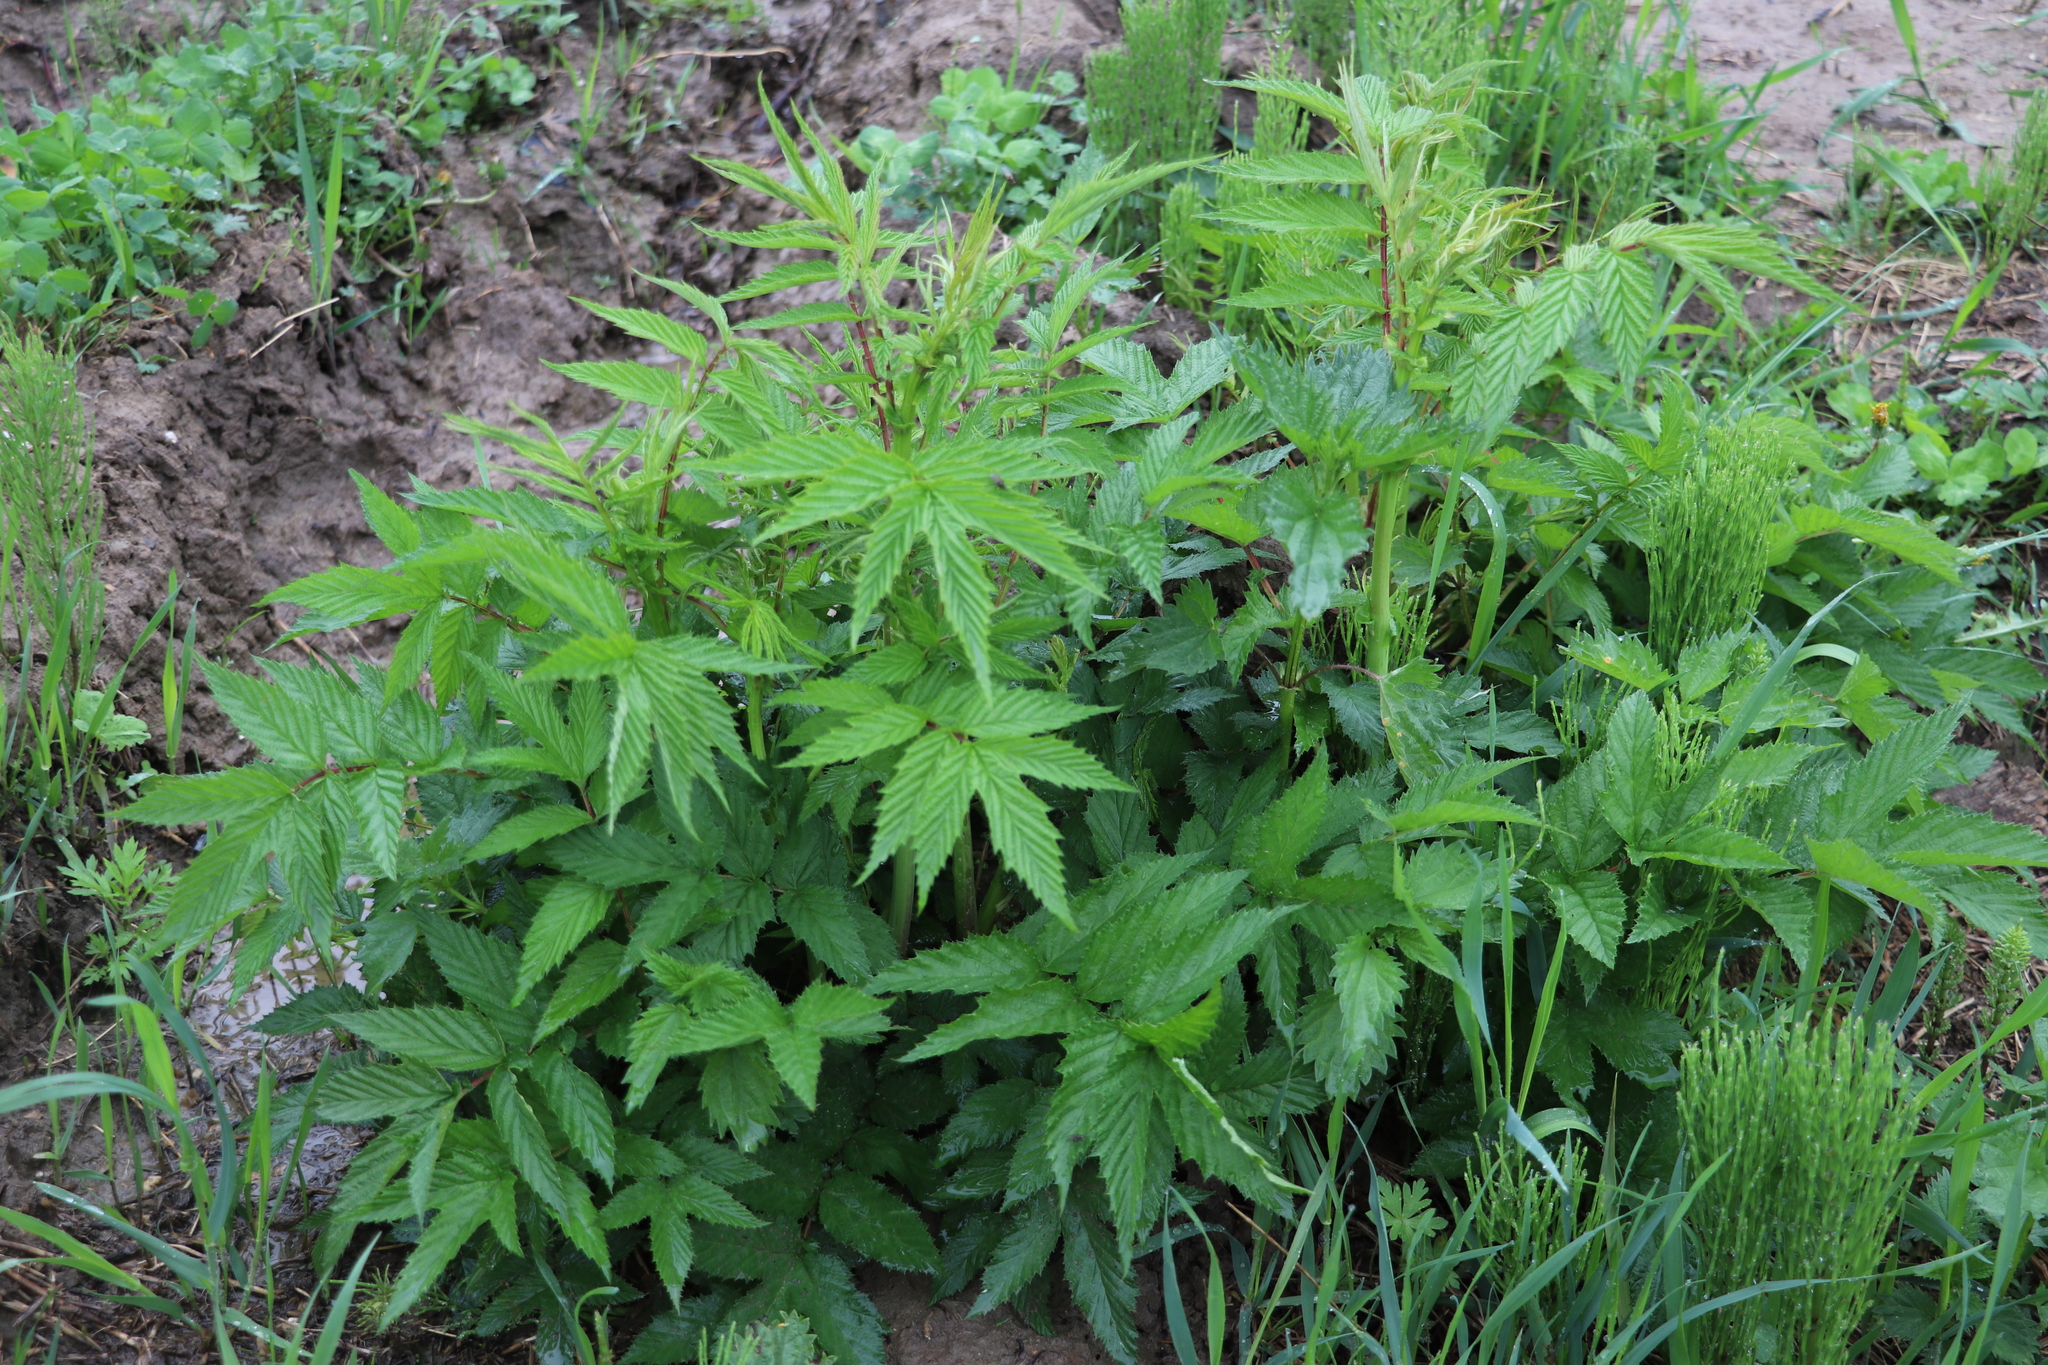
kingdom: Plantae
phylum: Tracheophyta
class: Magnoliopsida
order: Rosales
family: Rosaceae
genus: Filipendula
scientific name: Filipendula ulmaria
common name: Meadowsweet
